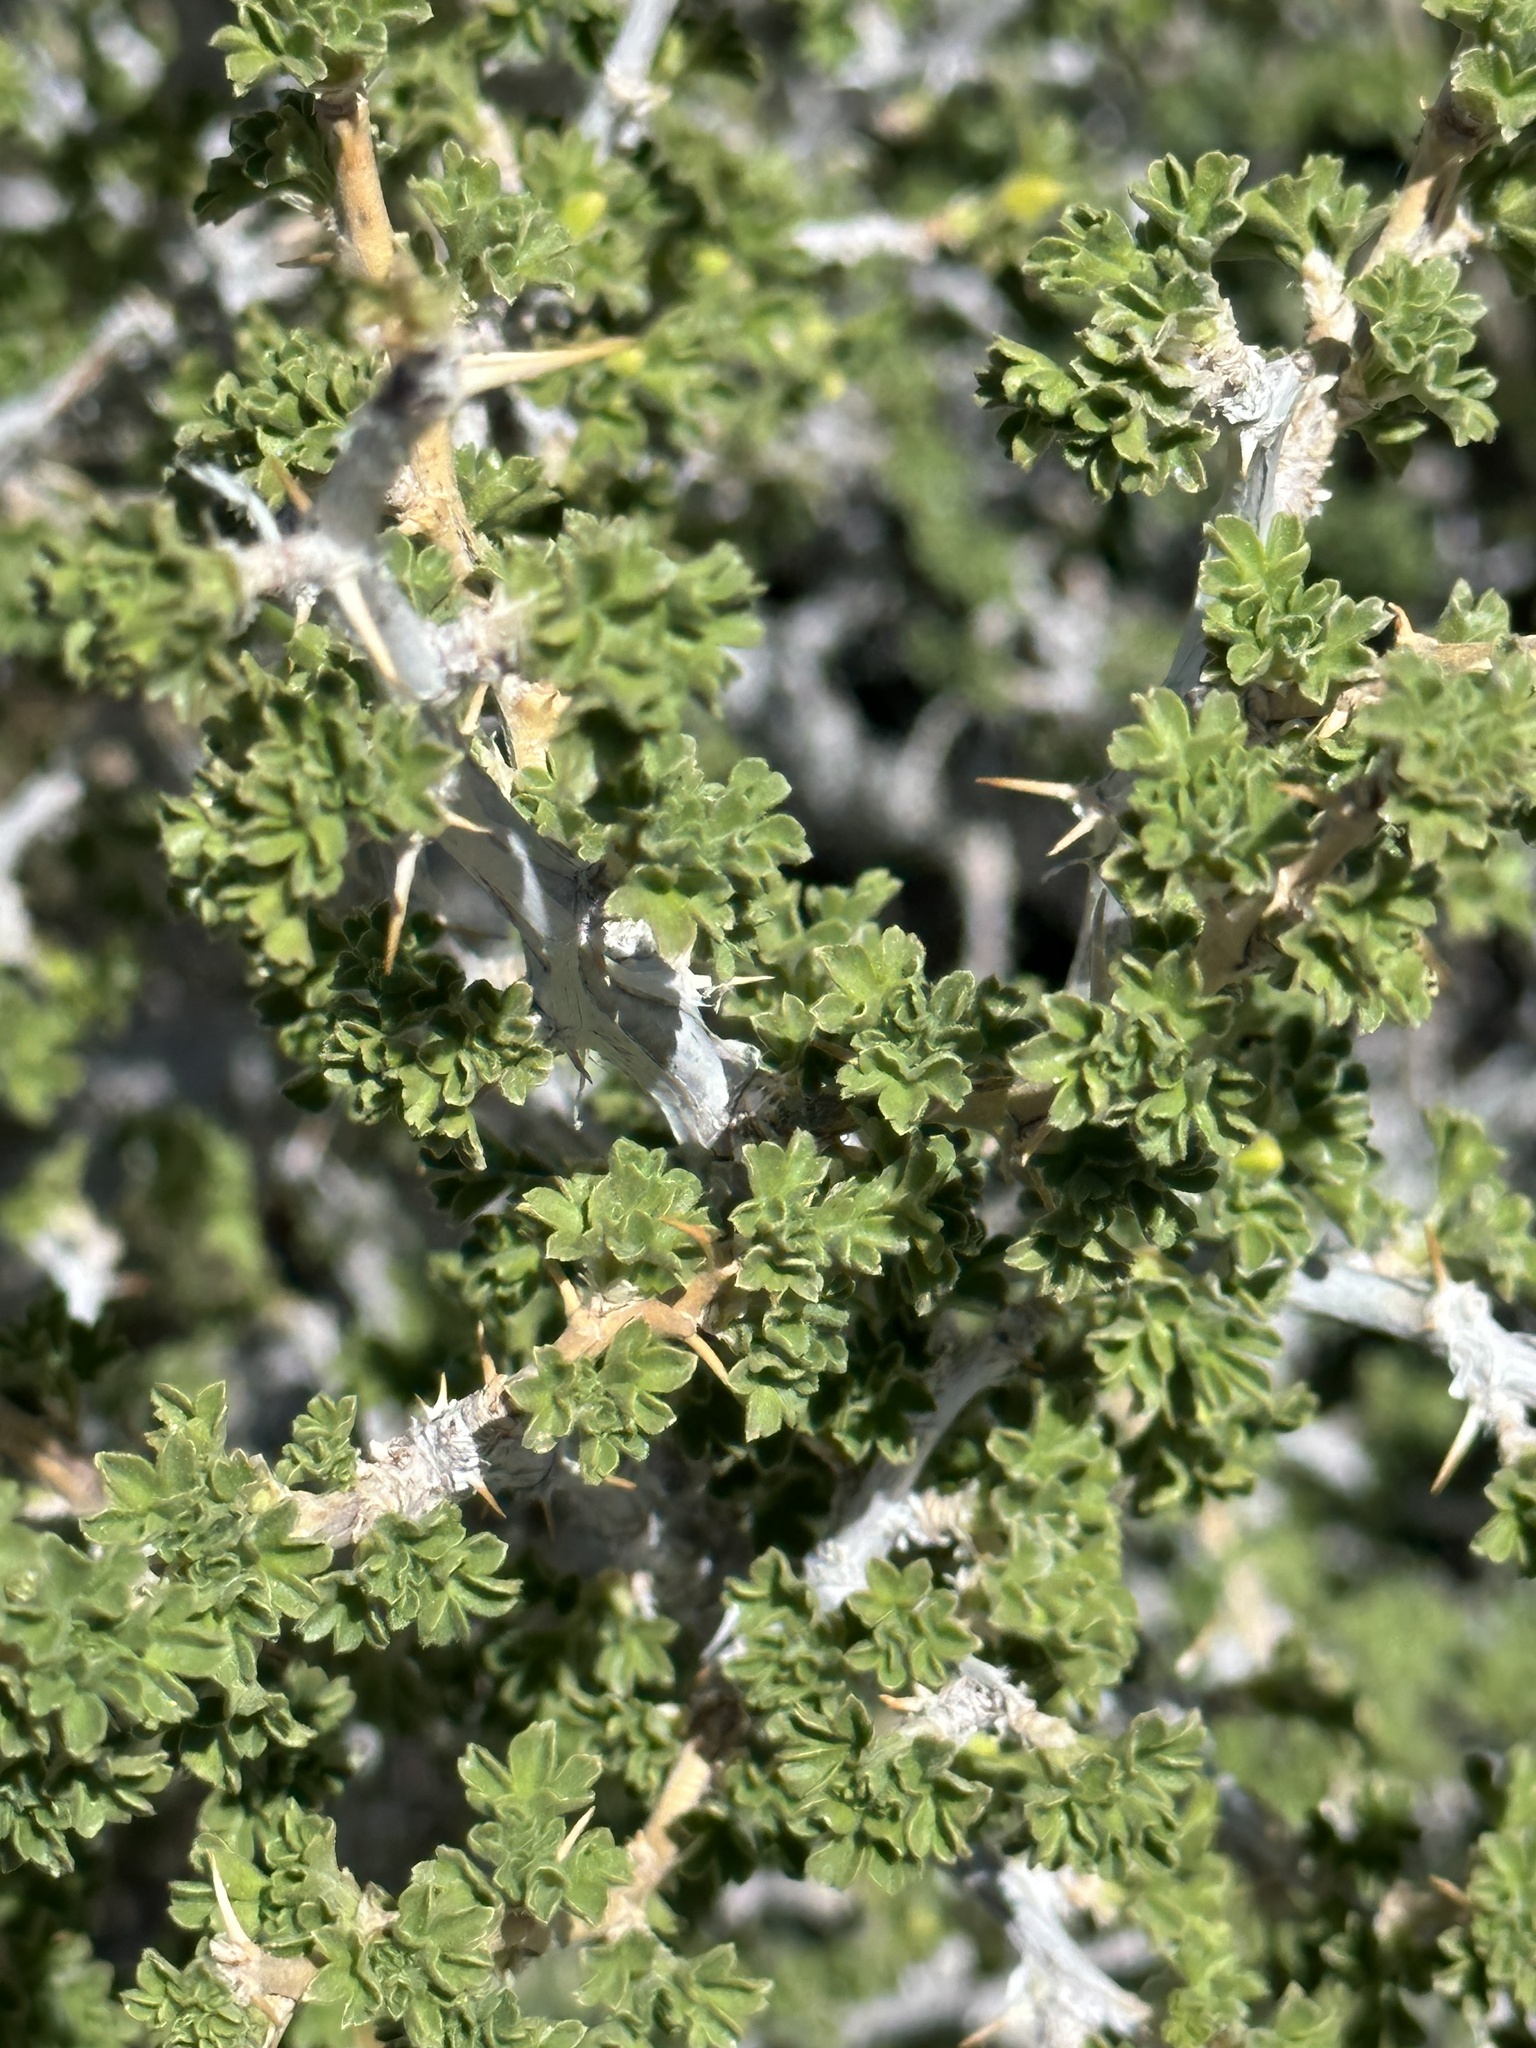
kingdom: Plantae
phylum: Tracheophyta
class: Magnoliopsida
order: Saxifragales
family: Grossulariaceae
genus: Ribes
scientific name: Ribes velutinum
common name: Desert gooseberry
